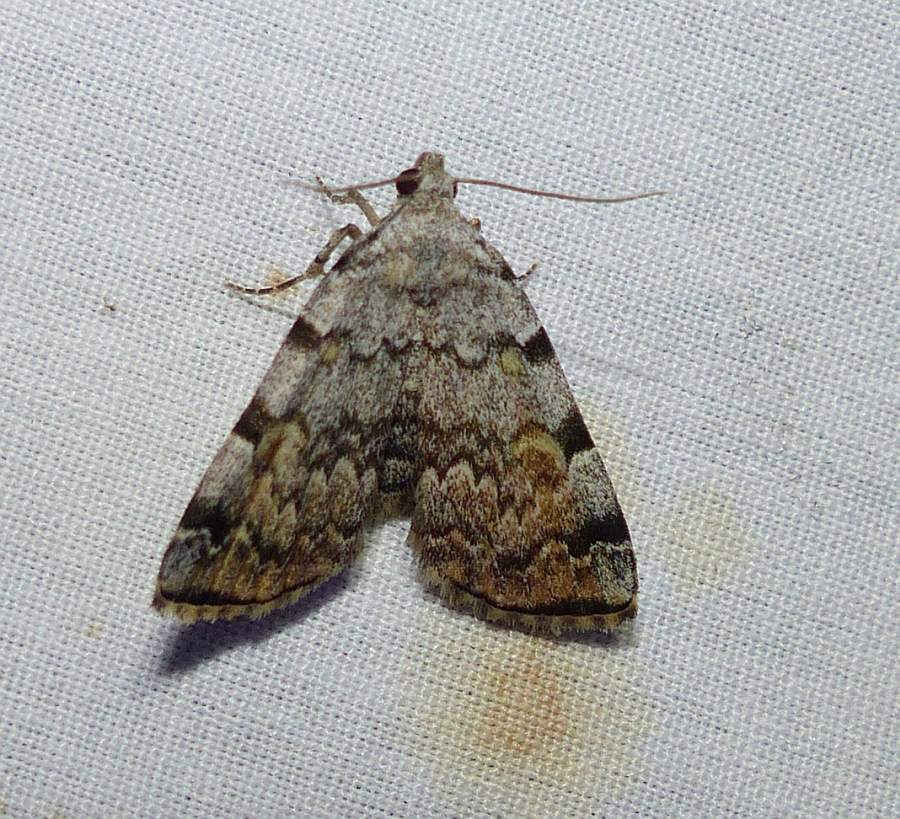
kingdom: Animalia
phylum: Arthropoda
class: Insecta
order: Lepidoptera
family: Erebidae
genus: Idia
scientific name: Idia americalis
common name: American idia moth
